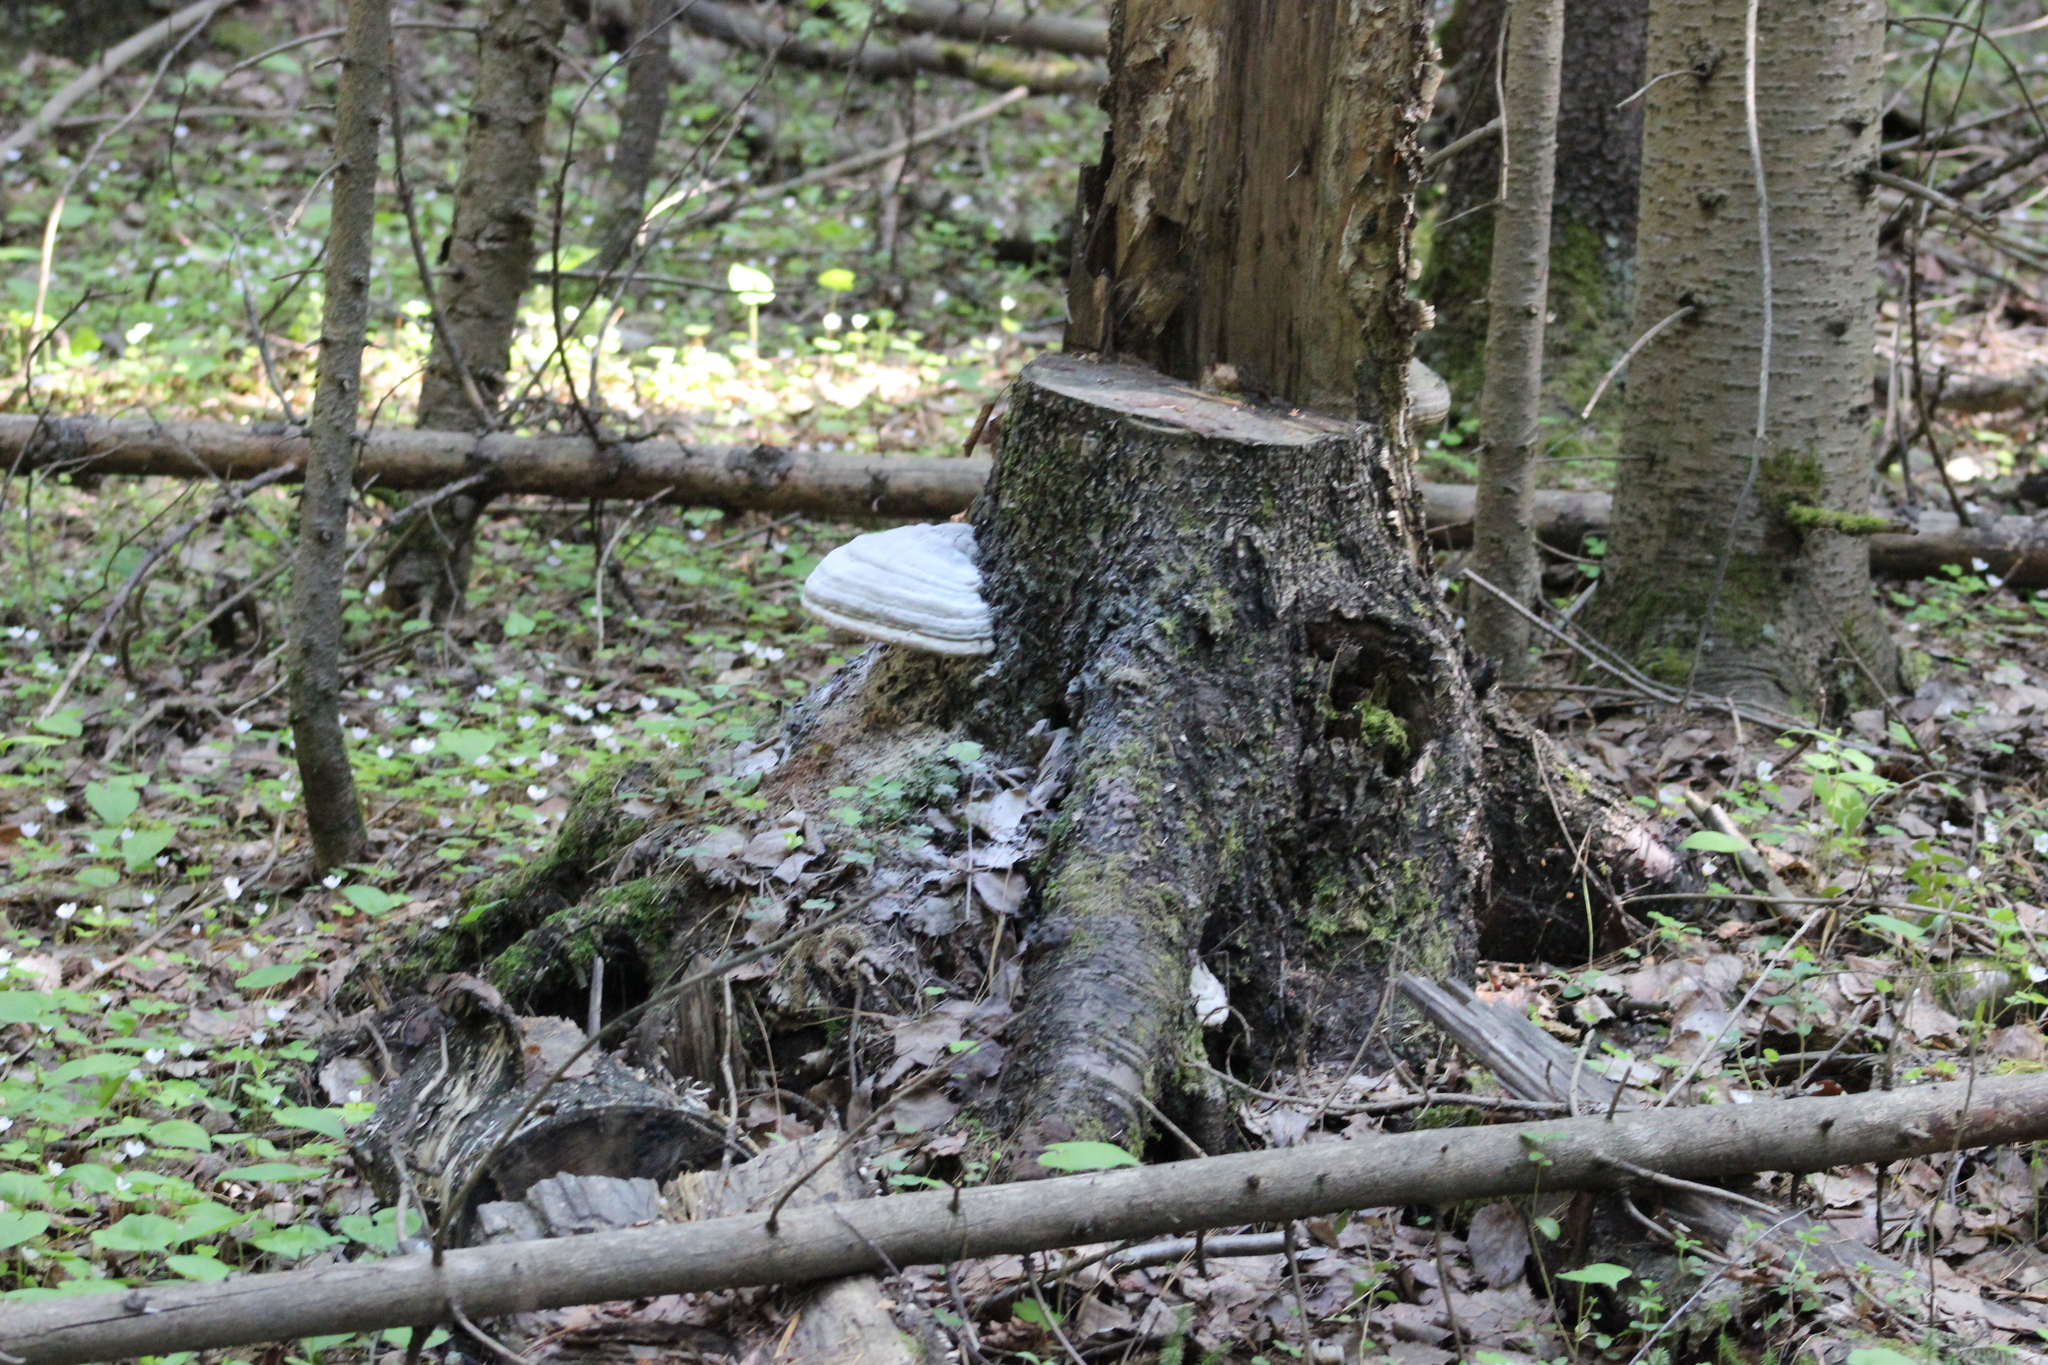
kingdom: Fungi
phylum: Basidiomycota
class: Agaricomycetes
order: Polyporales
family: Polyporaceae
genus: Fomes
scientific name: Fomes fomentarius
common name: Hoof fungus
